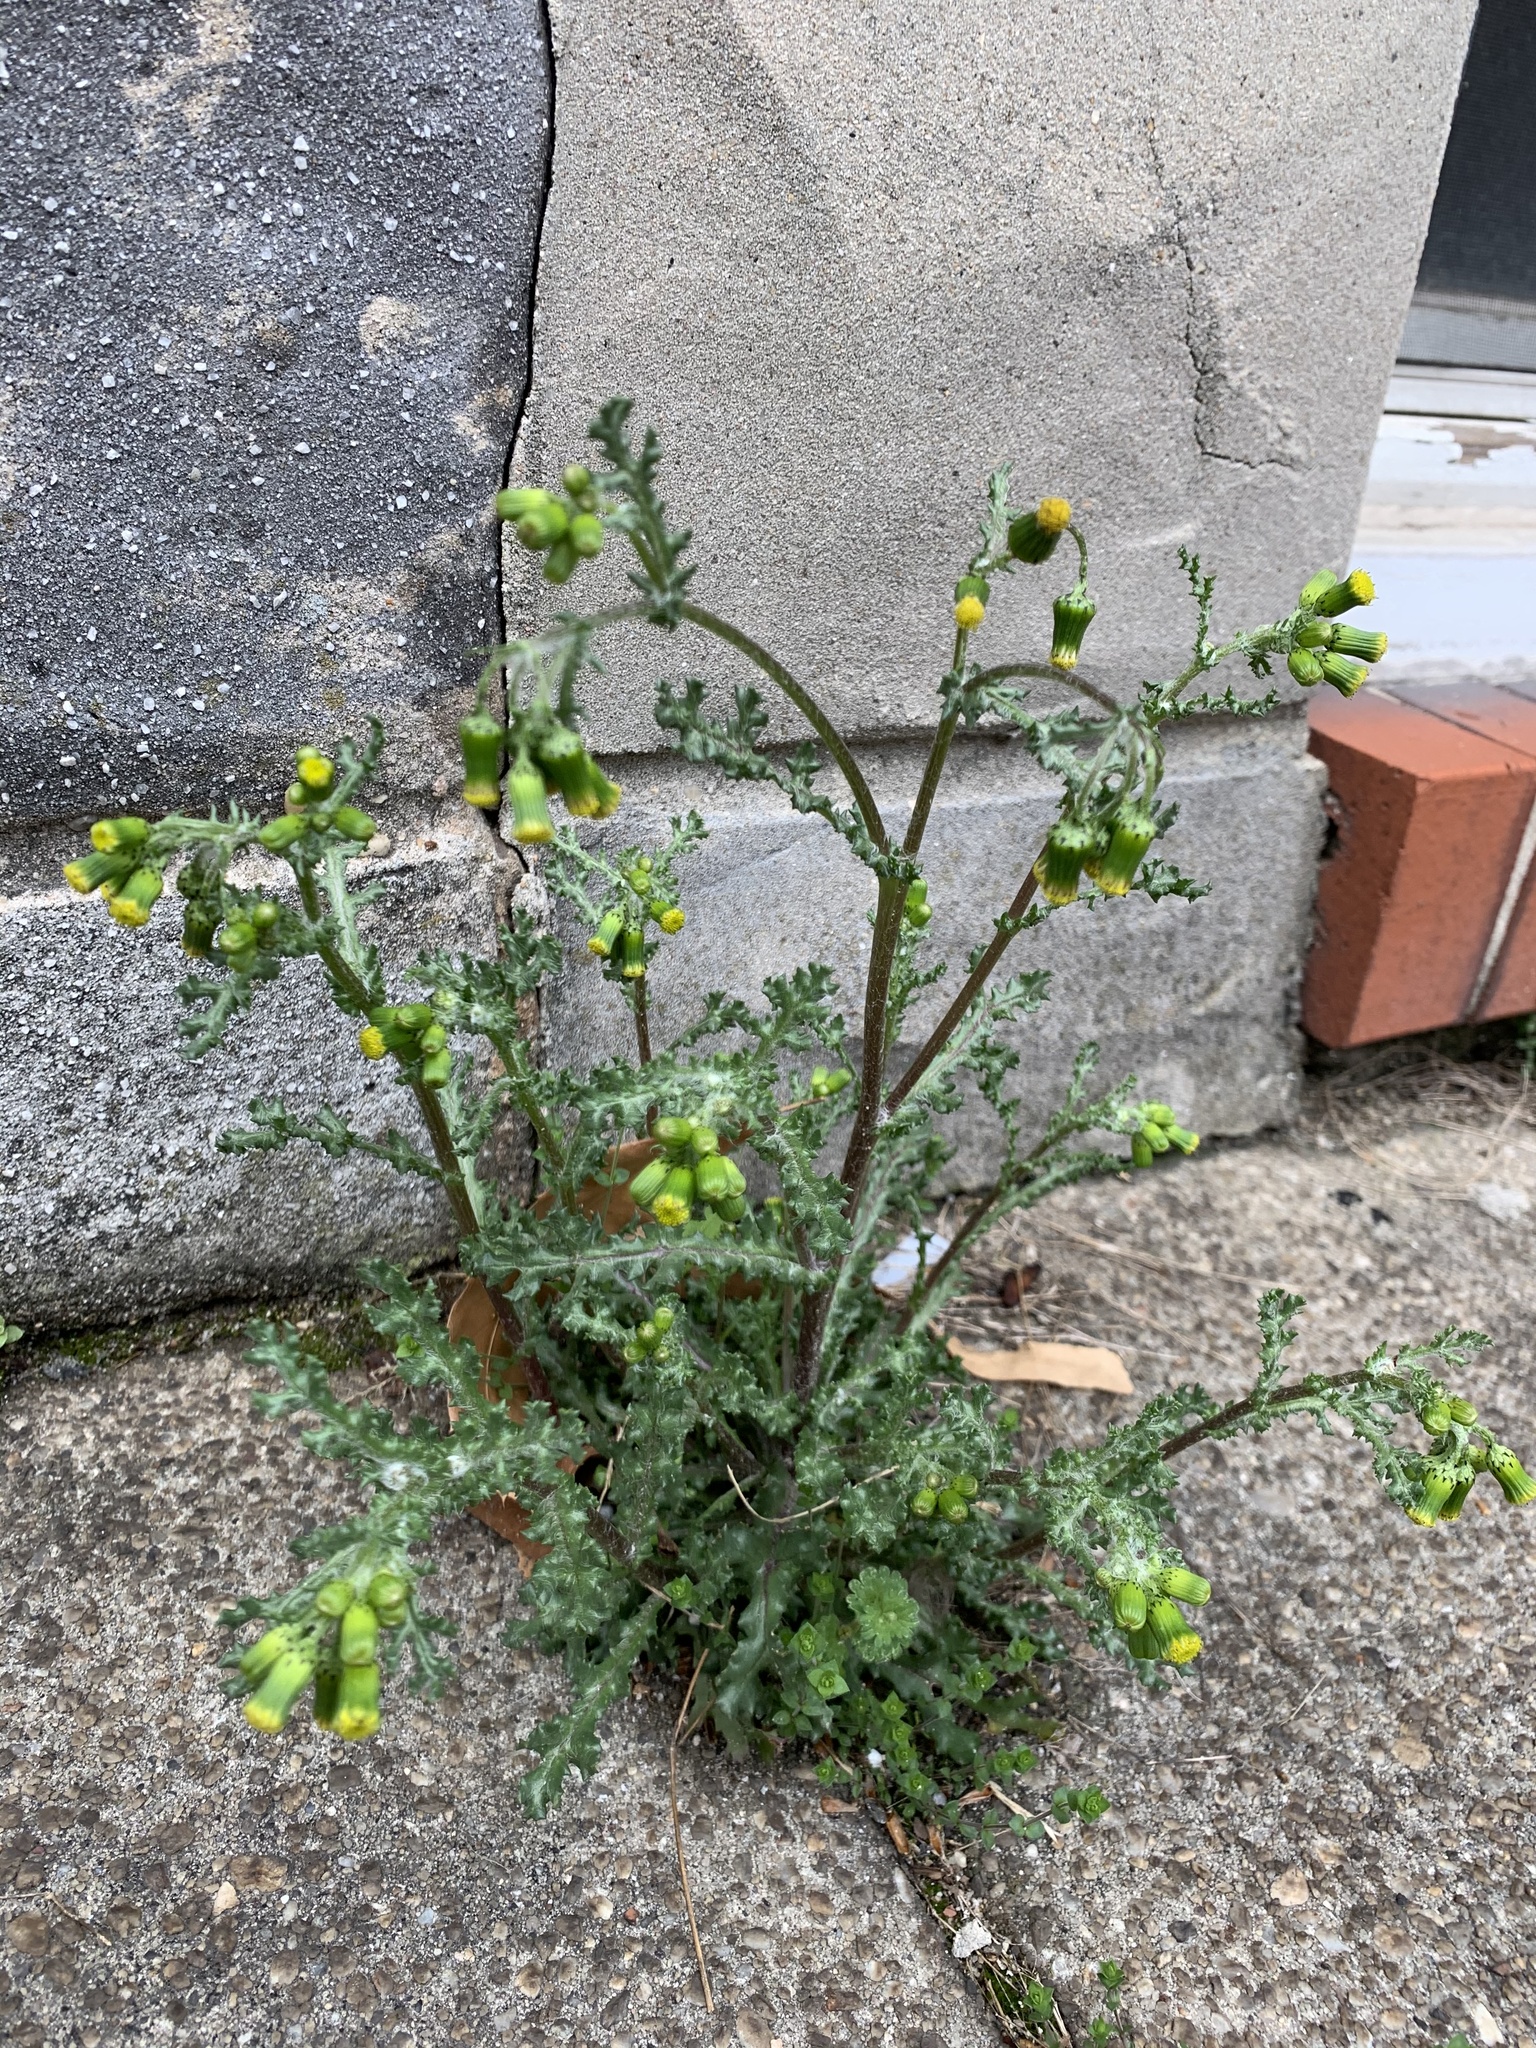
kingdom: Plantae
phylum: Tracheophyta
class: Magnoliopsida
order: Asterales
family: Asteraceae
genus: Senecio
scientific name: Senecio vulgaris
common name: Old-man-in-the-spring
